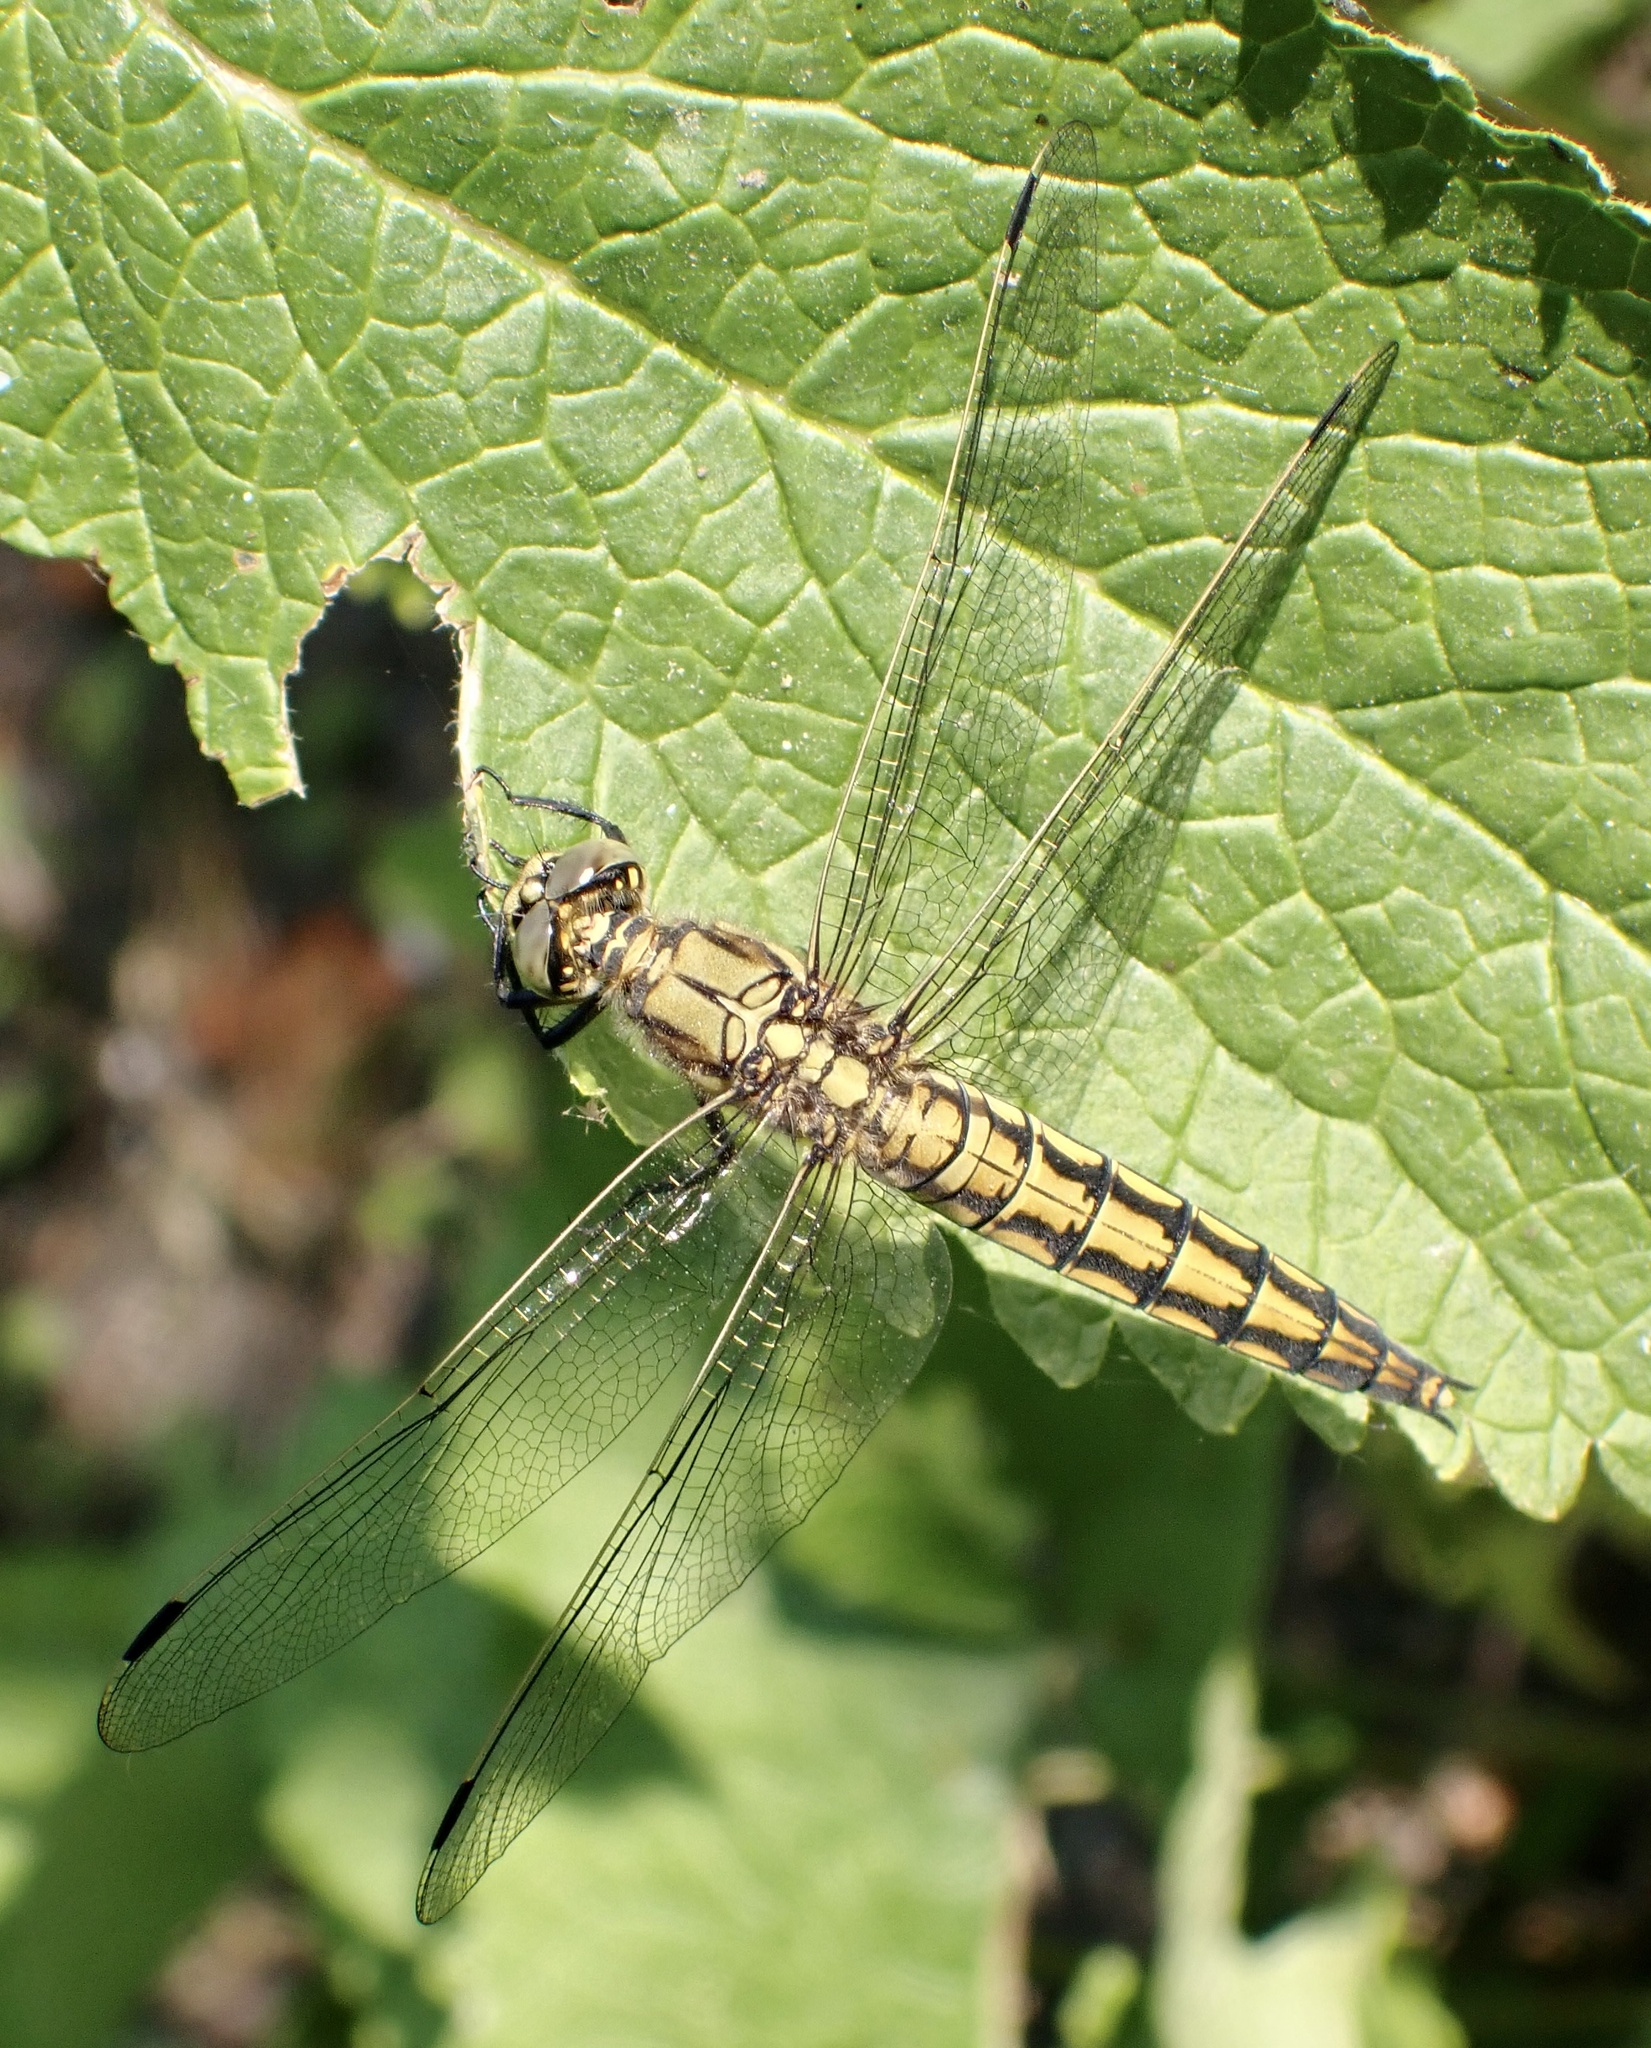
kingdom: Animalia
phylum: Arthropoda
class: Insecta
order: Odonata
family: Libellulidae
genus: Orthetrum
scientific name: Orthetrum cancellatum
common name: Black-tailed skimmer
